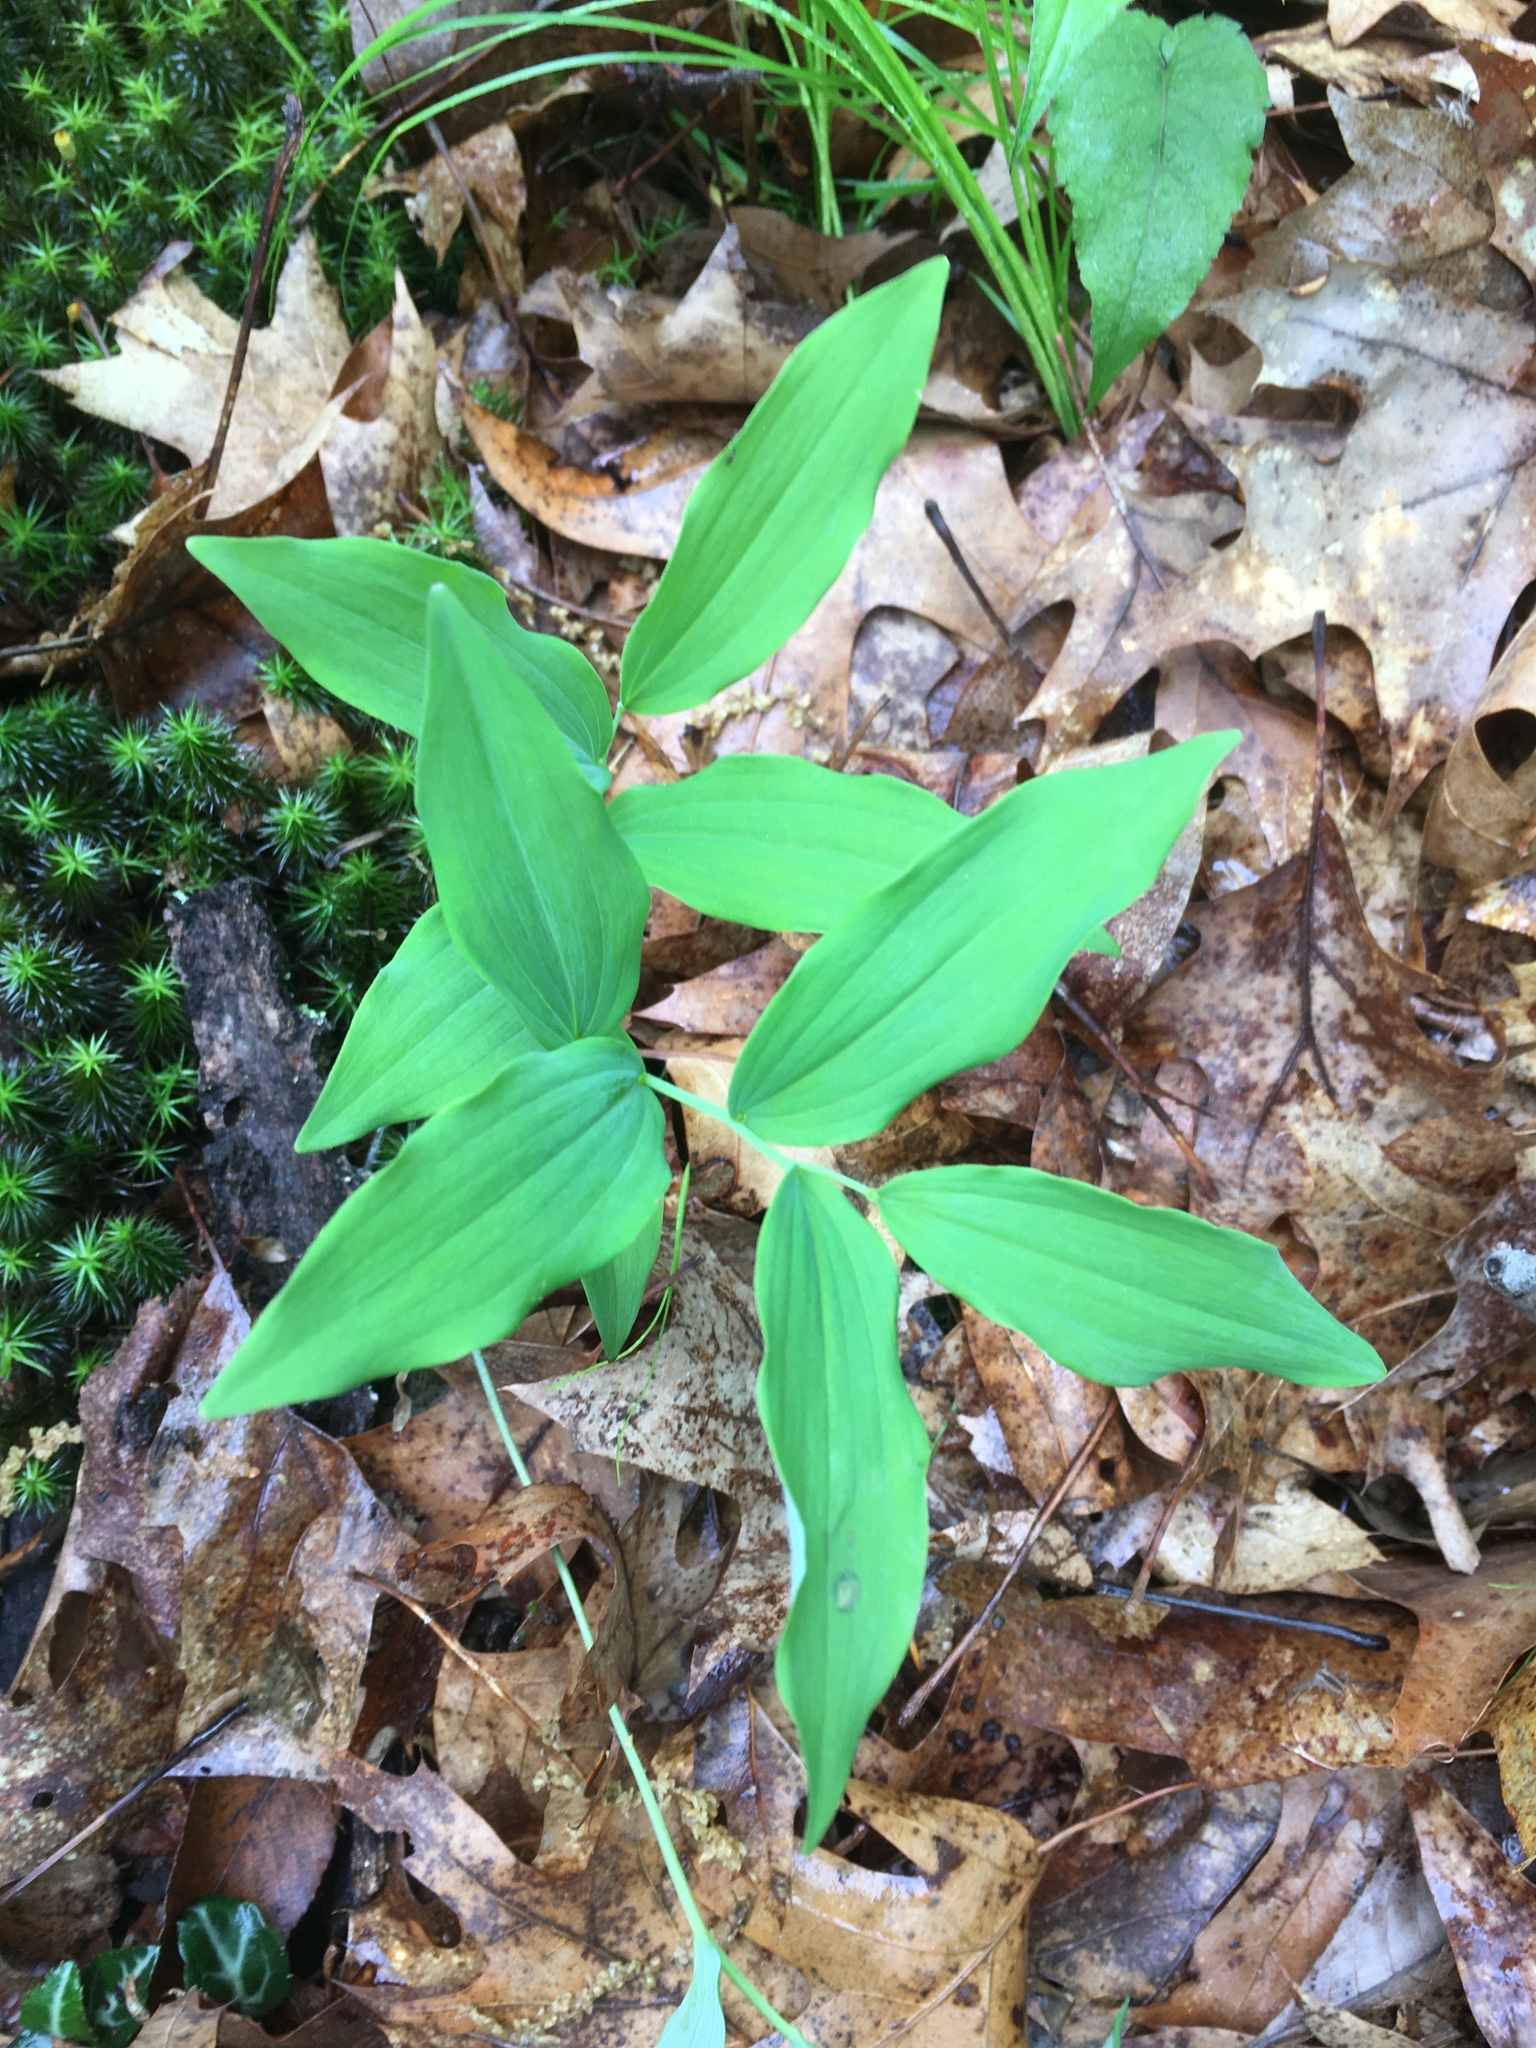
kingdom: Plantae
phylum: Tracheophyta
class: Liliopsida
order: Asparagales
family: Asparagaceae
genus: Polygonatum
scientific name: Polygonatum pubescens
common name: Downy solomon's seal
